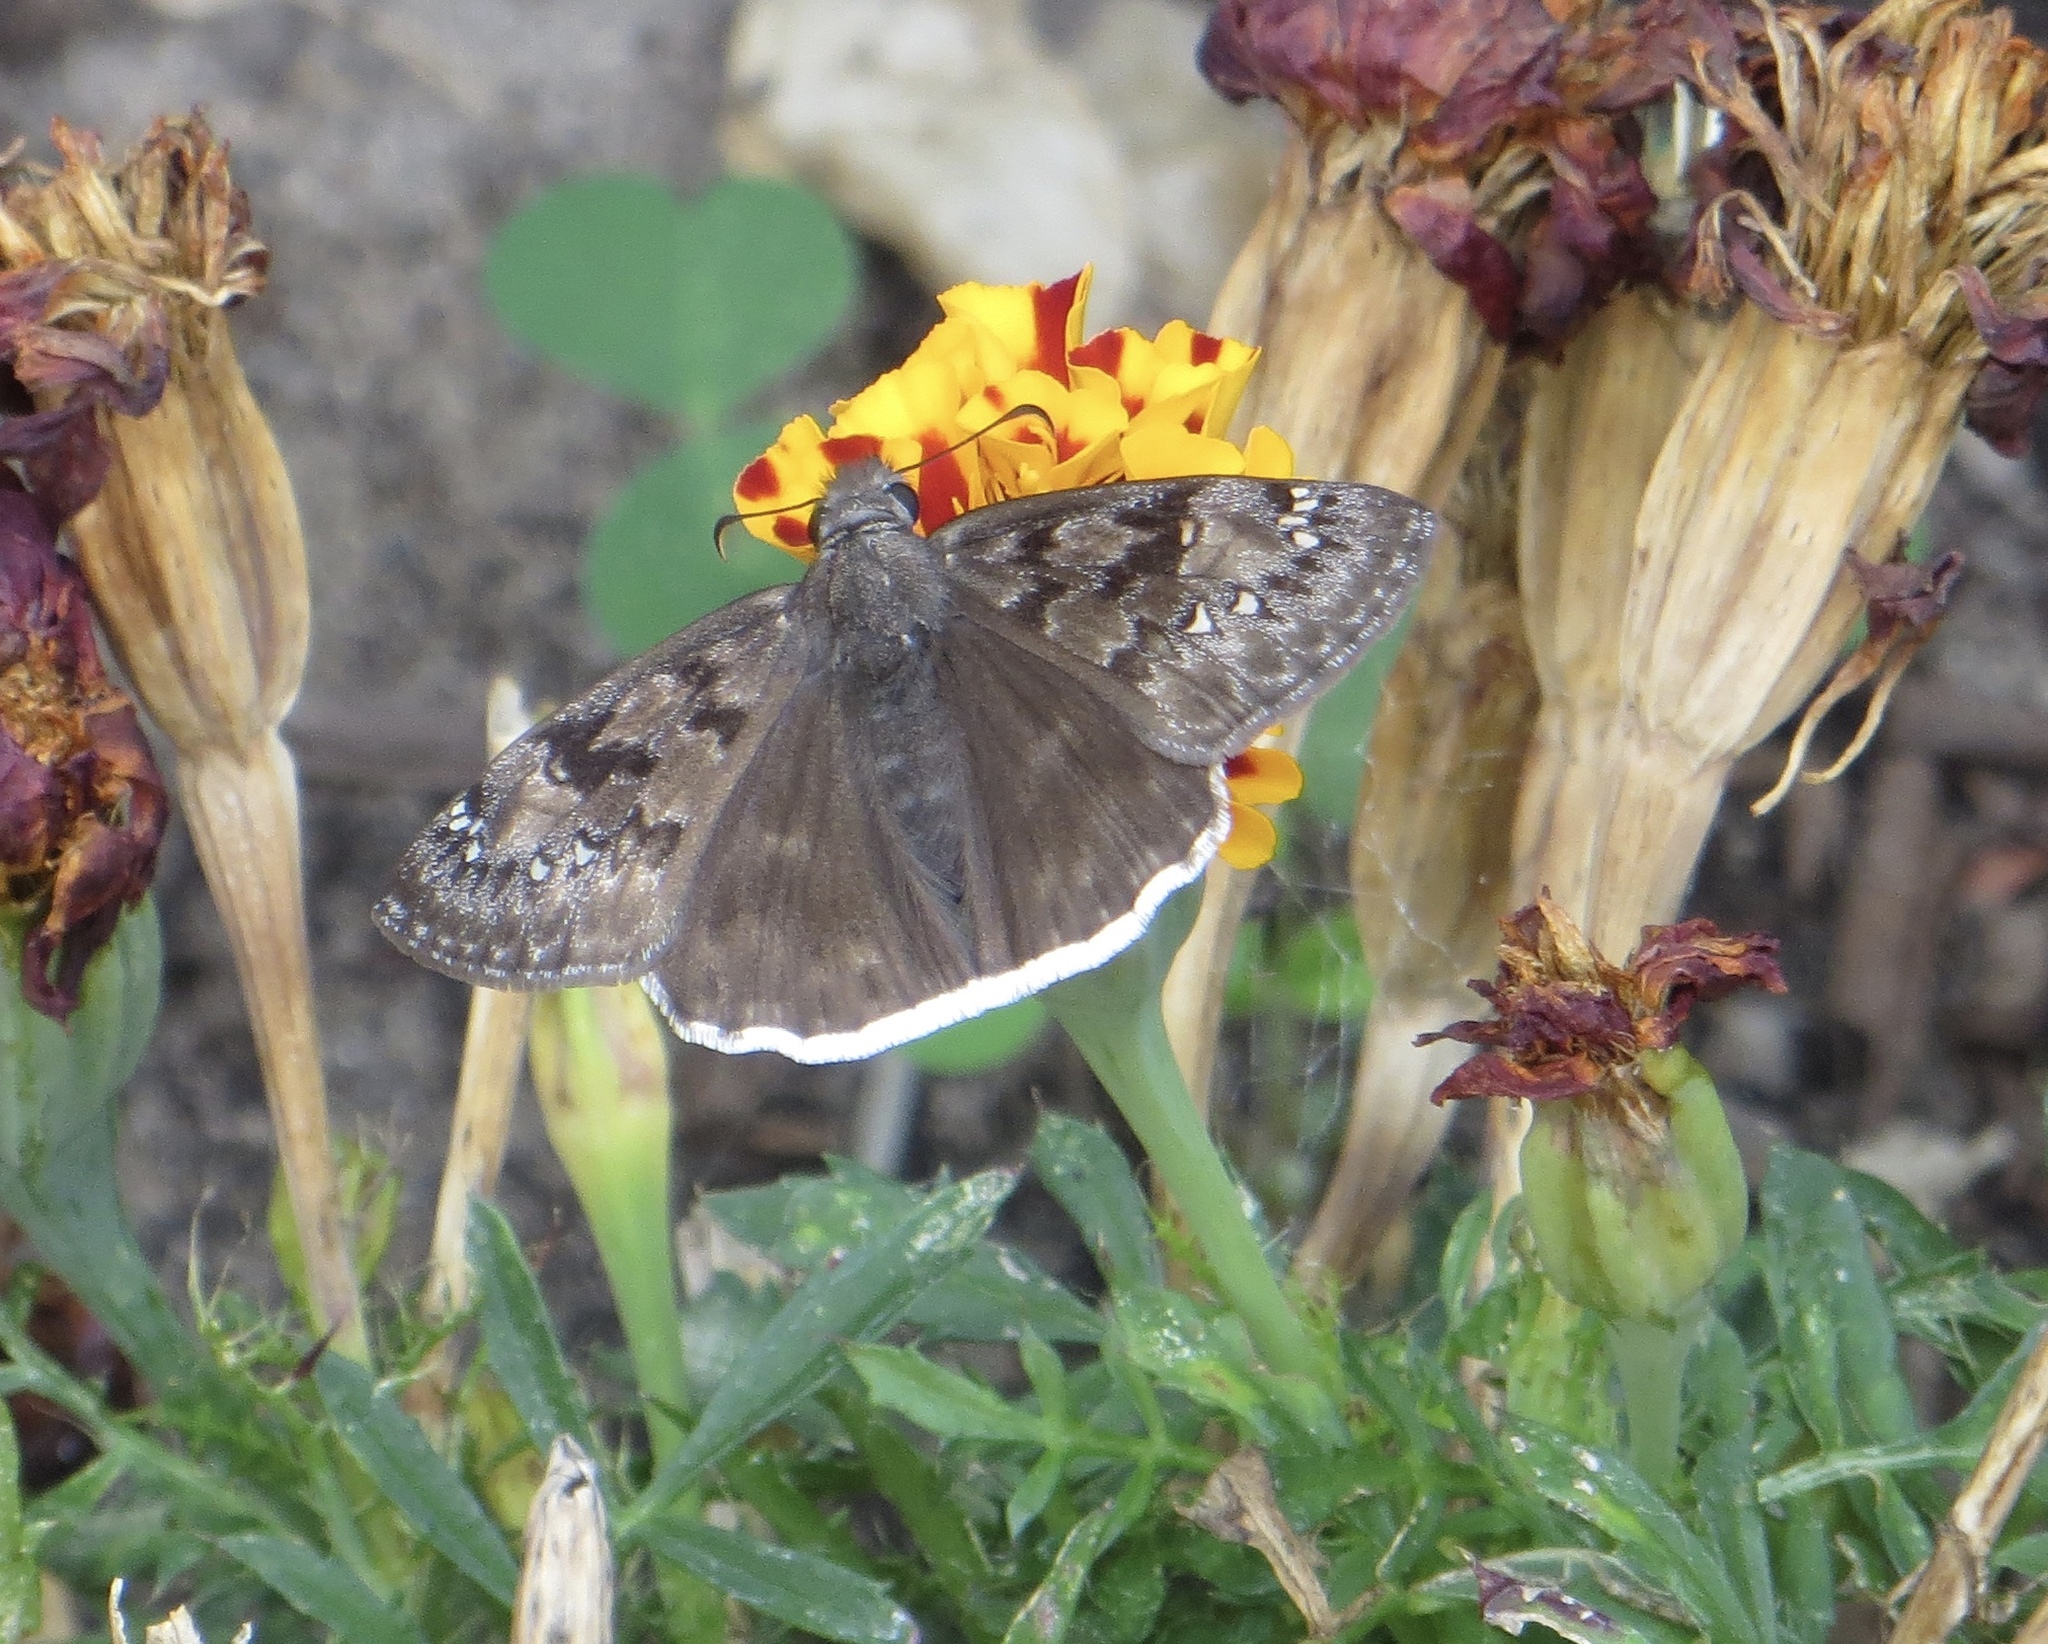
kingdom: Animalia
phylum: Arthropoda
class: Insecta
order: Lepidoptera
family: Hesperiidae
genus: Erynnis
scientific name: Erynnis tristis
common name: Mournful duskywing
